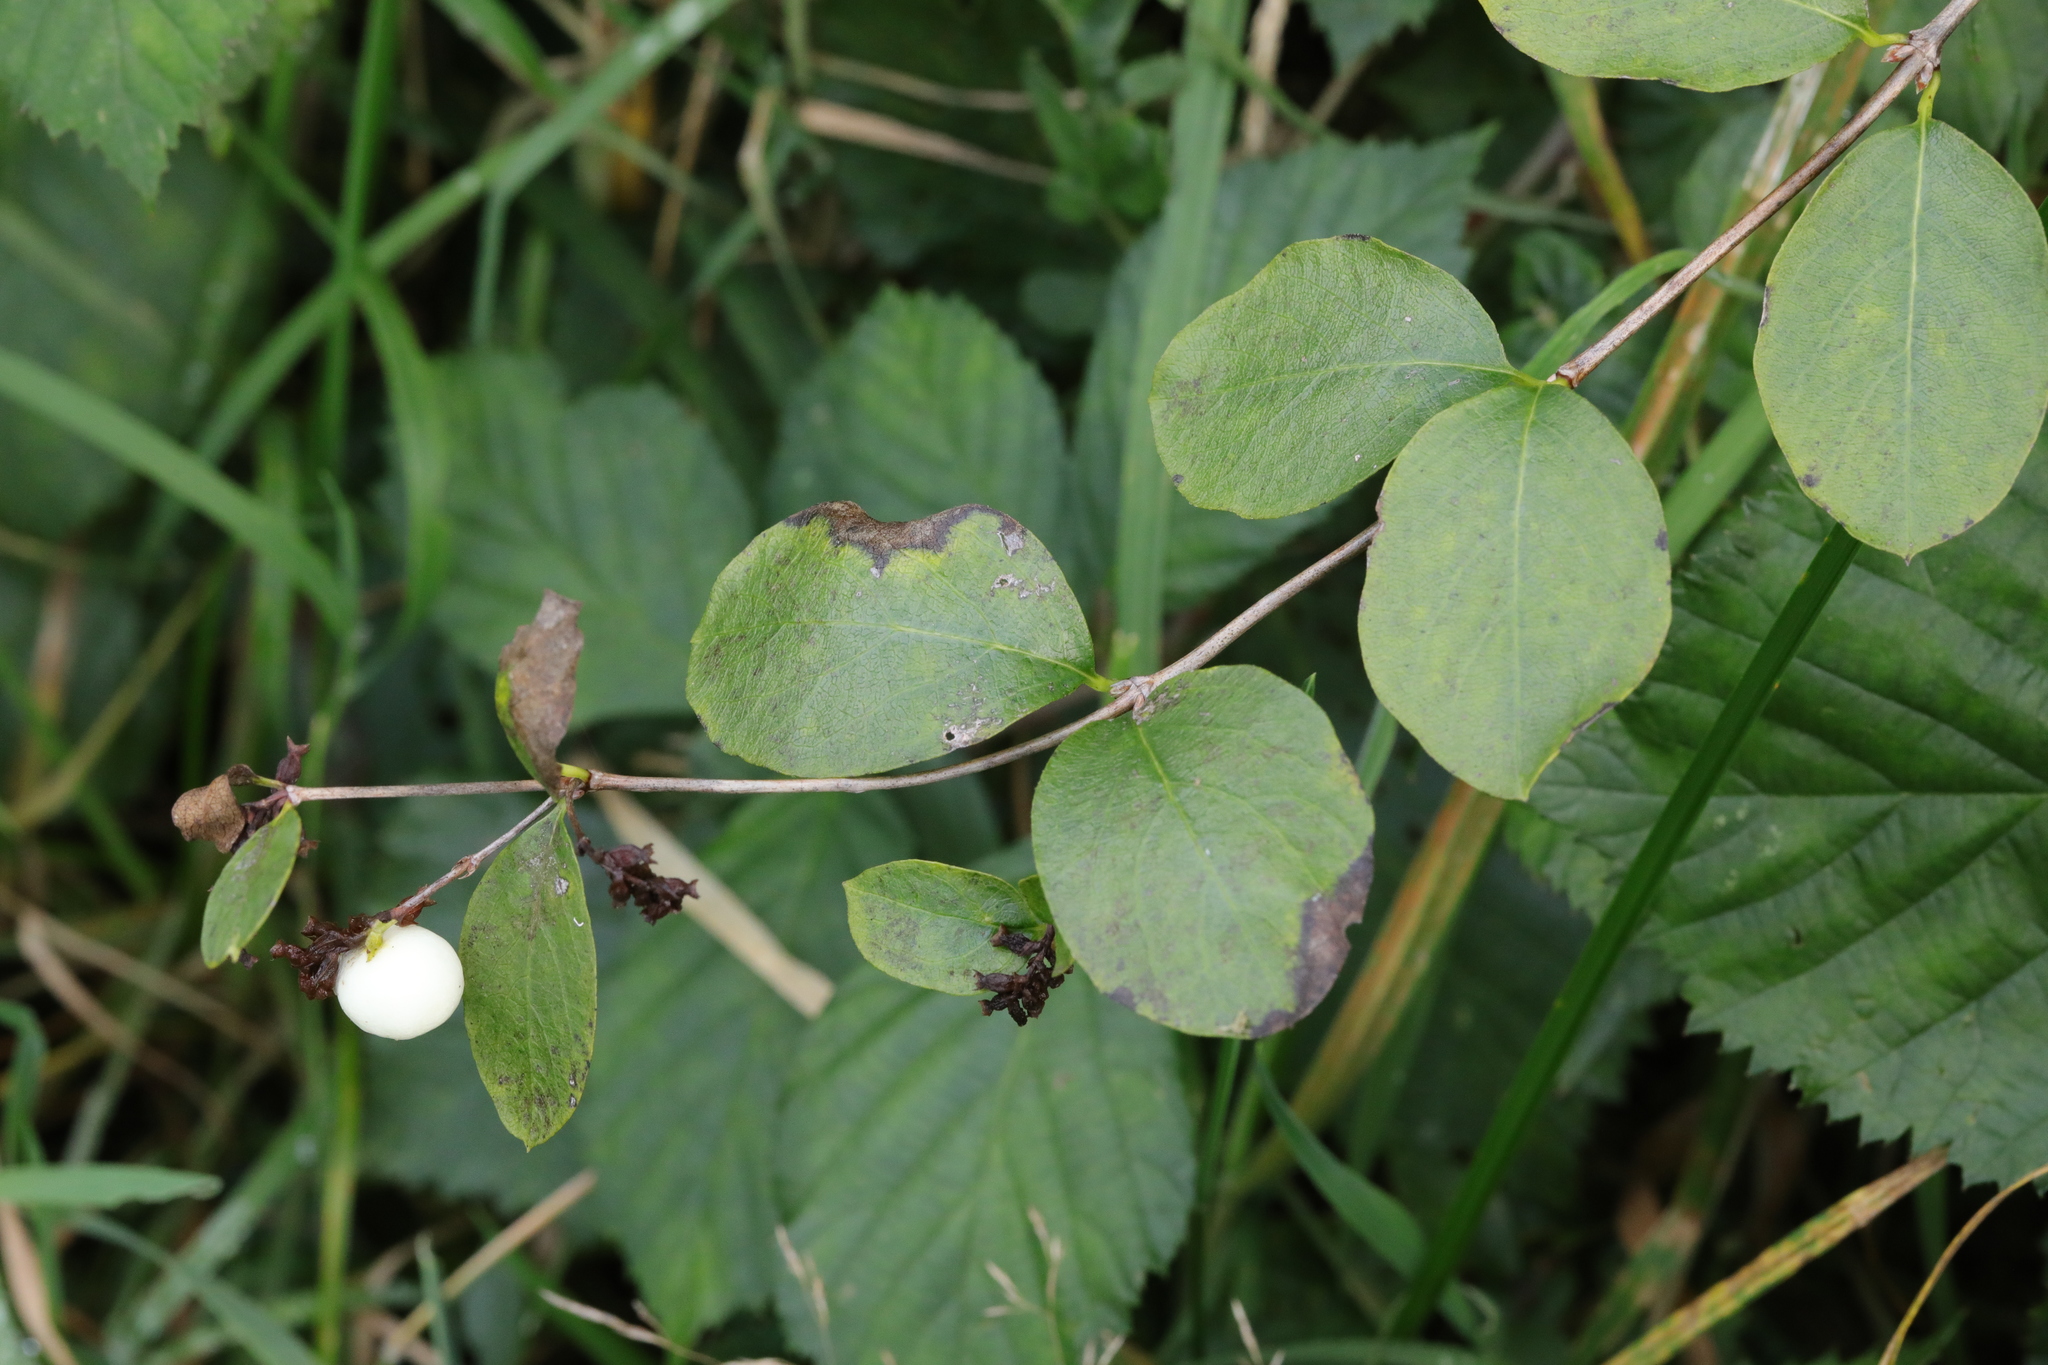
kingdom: Plantae
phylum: Tracheophyta
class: Magnoliopsida
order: Dipsacales
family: Caprifoliaceae
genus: Symphoricarpos
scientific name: Symphoricarpos albus
